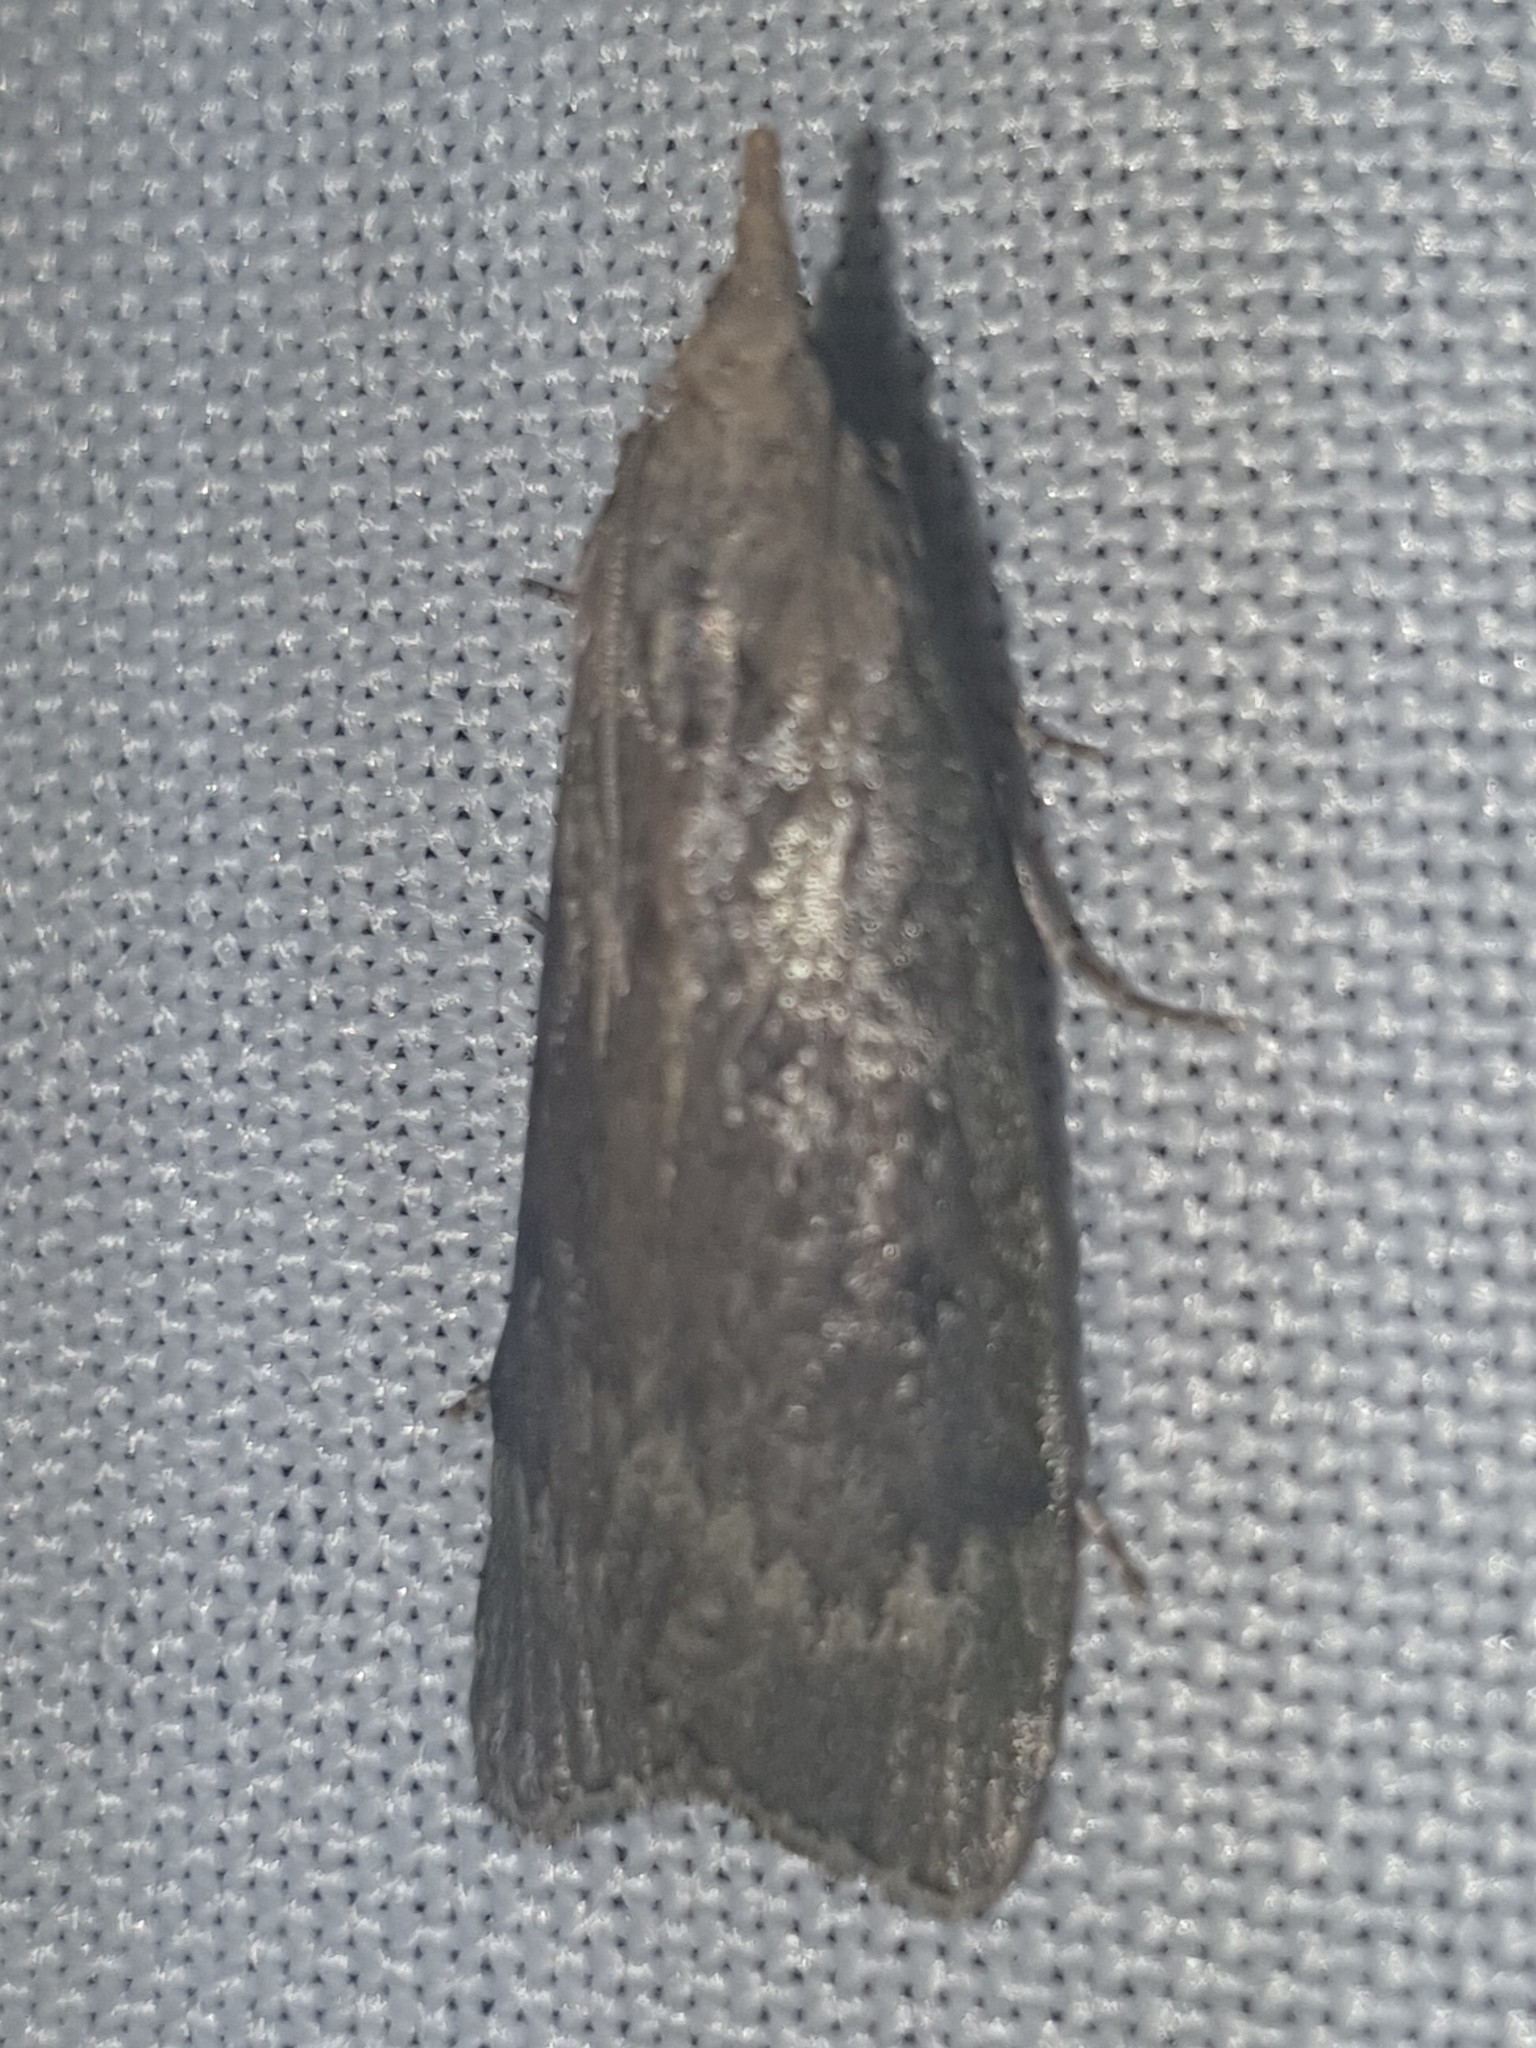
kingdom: Animalia
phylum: Arthropoda
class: Insecta
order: Lepidoptera
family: Pyralidae
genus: Aphomia
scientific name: Aphomia sociella
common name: Bee moth
